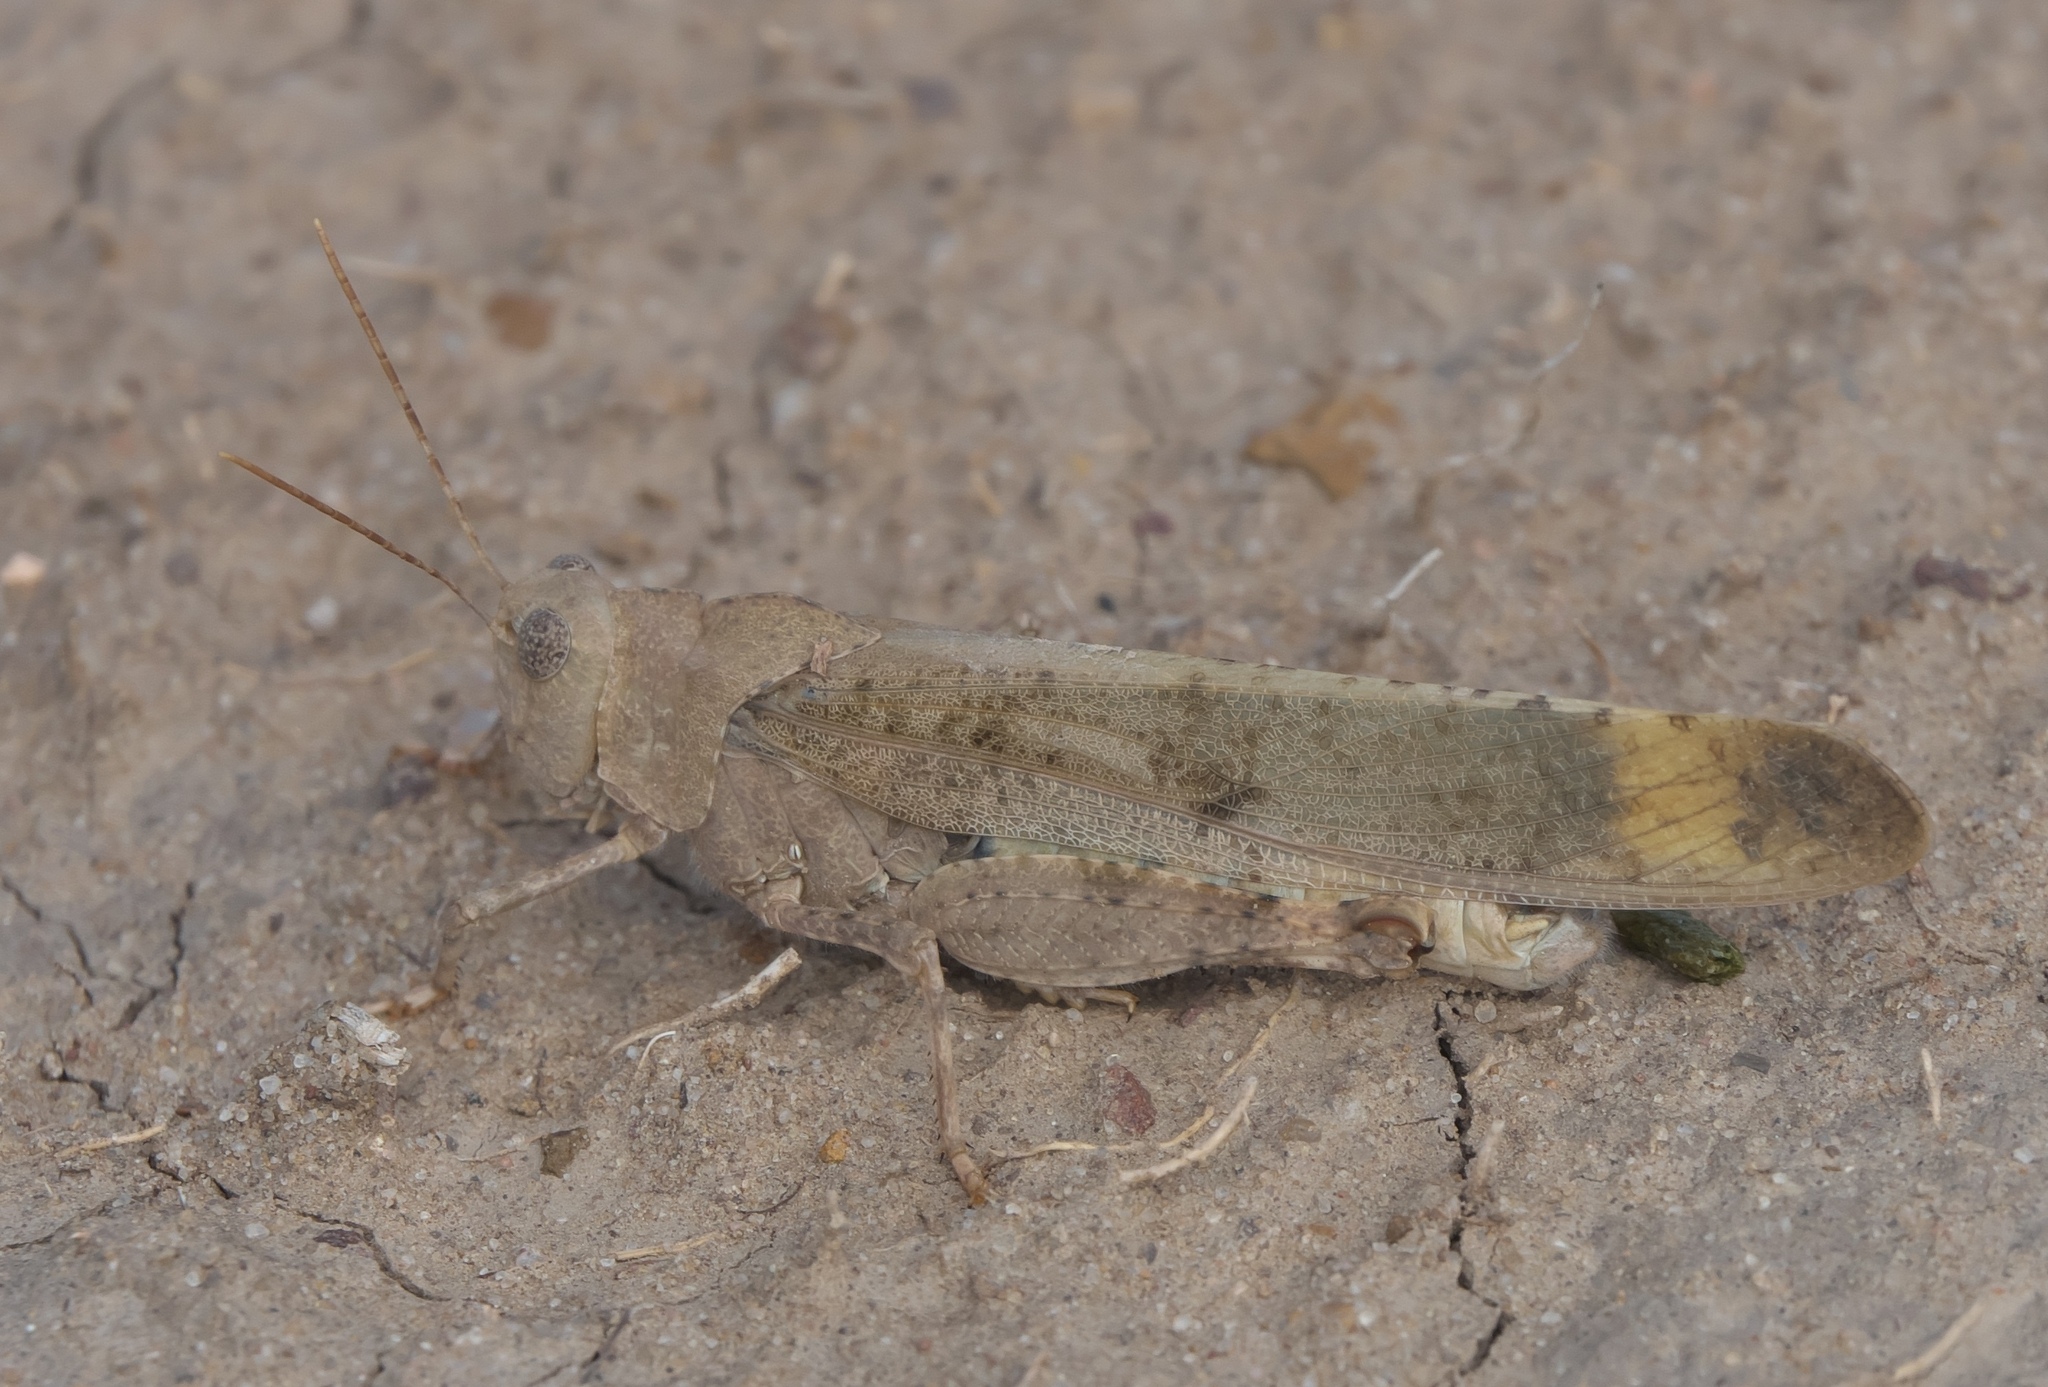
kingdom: Animalia
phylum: Arthropoda
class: Insecta
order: Orthoptera
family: Acrididae
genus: Dissosteira
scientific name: Dissosteira carolina
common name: Carolina grasshopper
